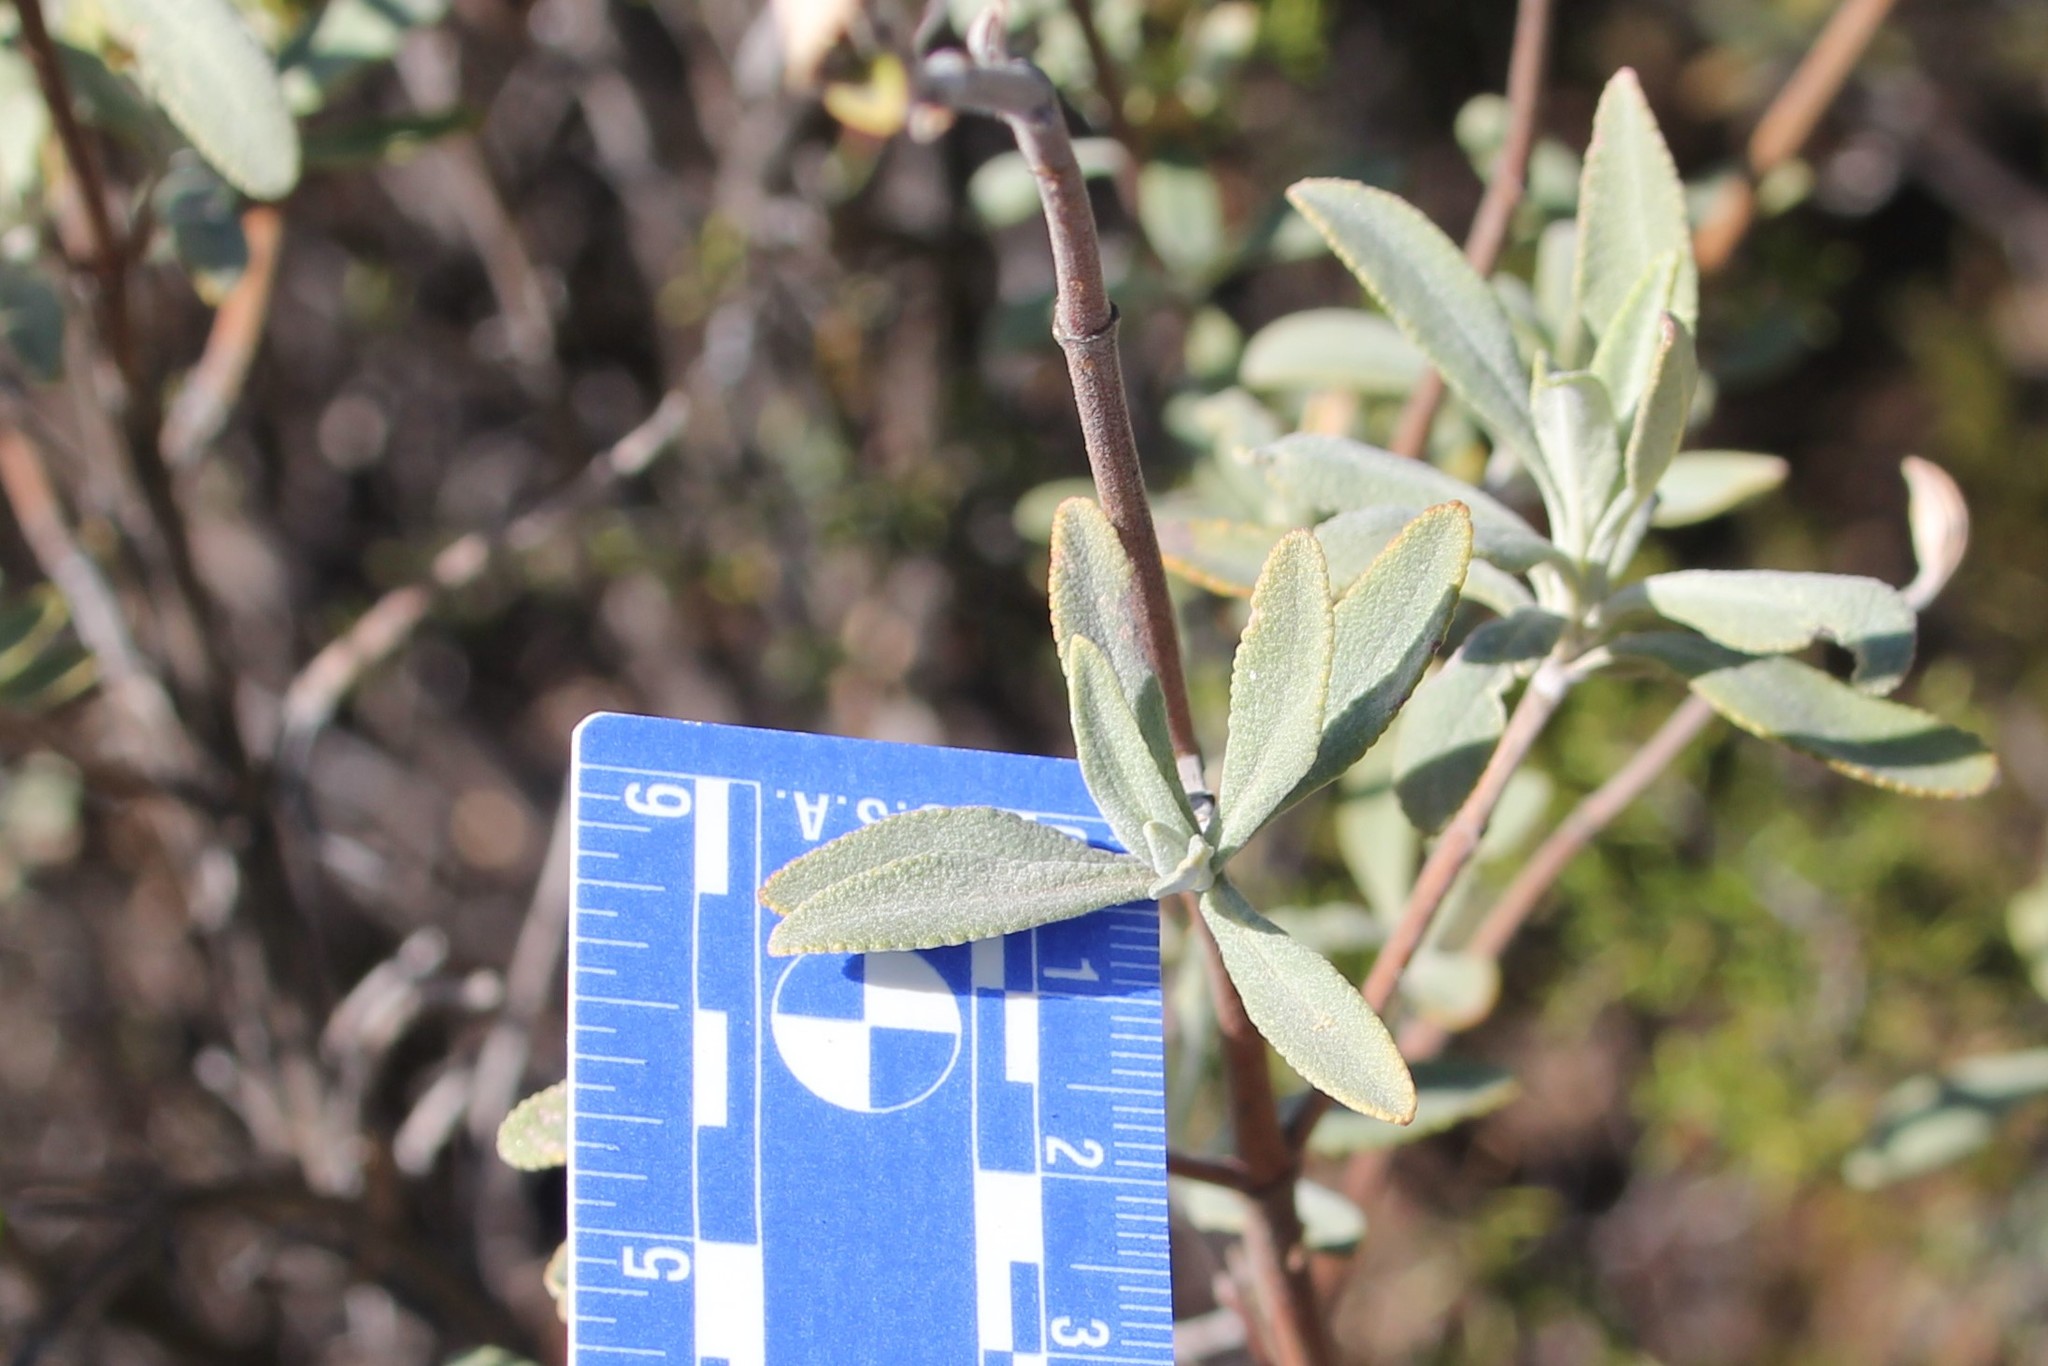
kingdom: Plantae
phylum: Tracheophyta
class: Magnoliopsida
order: Lamiales
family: Lamiaceae
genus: Salvia
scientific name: Salvia clevelandii
